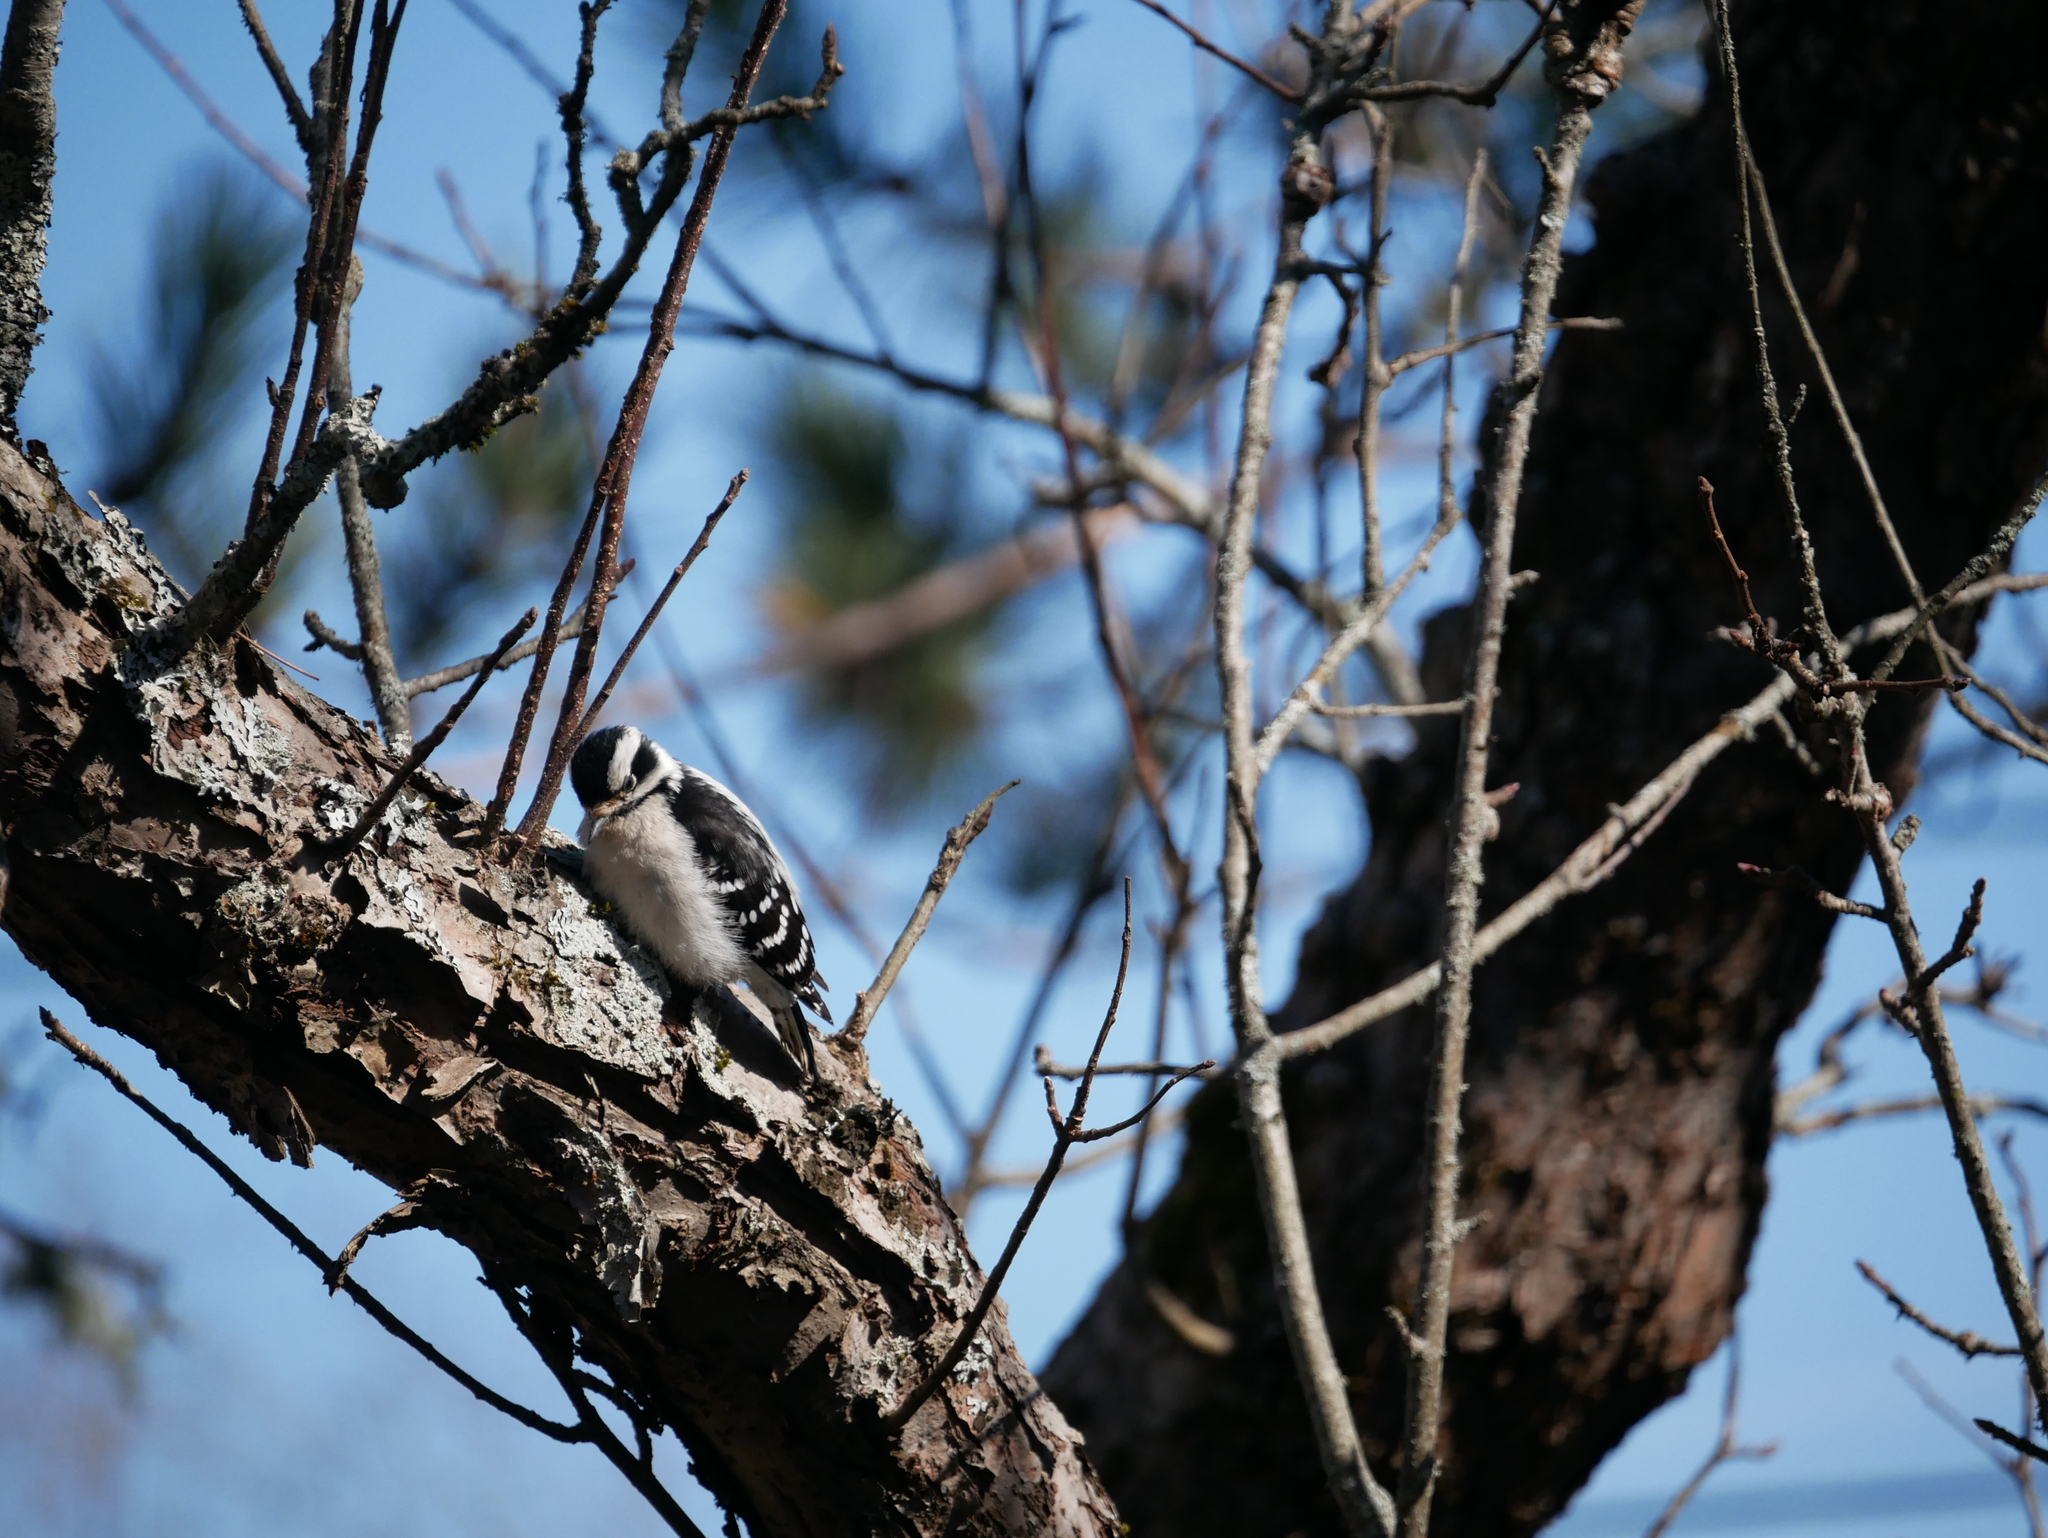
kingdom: Animalia
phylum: Chordata
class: Aves
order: Piciformes
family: Picidae
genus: Dryobates
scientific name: Dryobates pubescens
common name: Downy woodpecker
